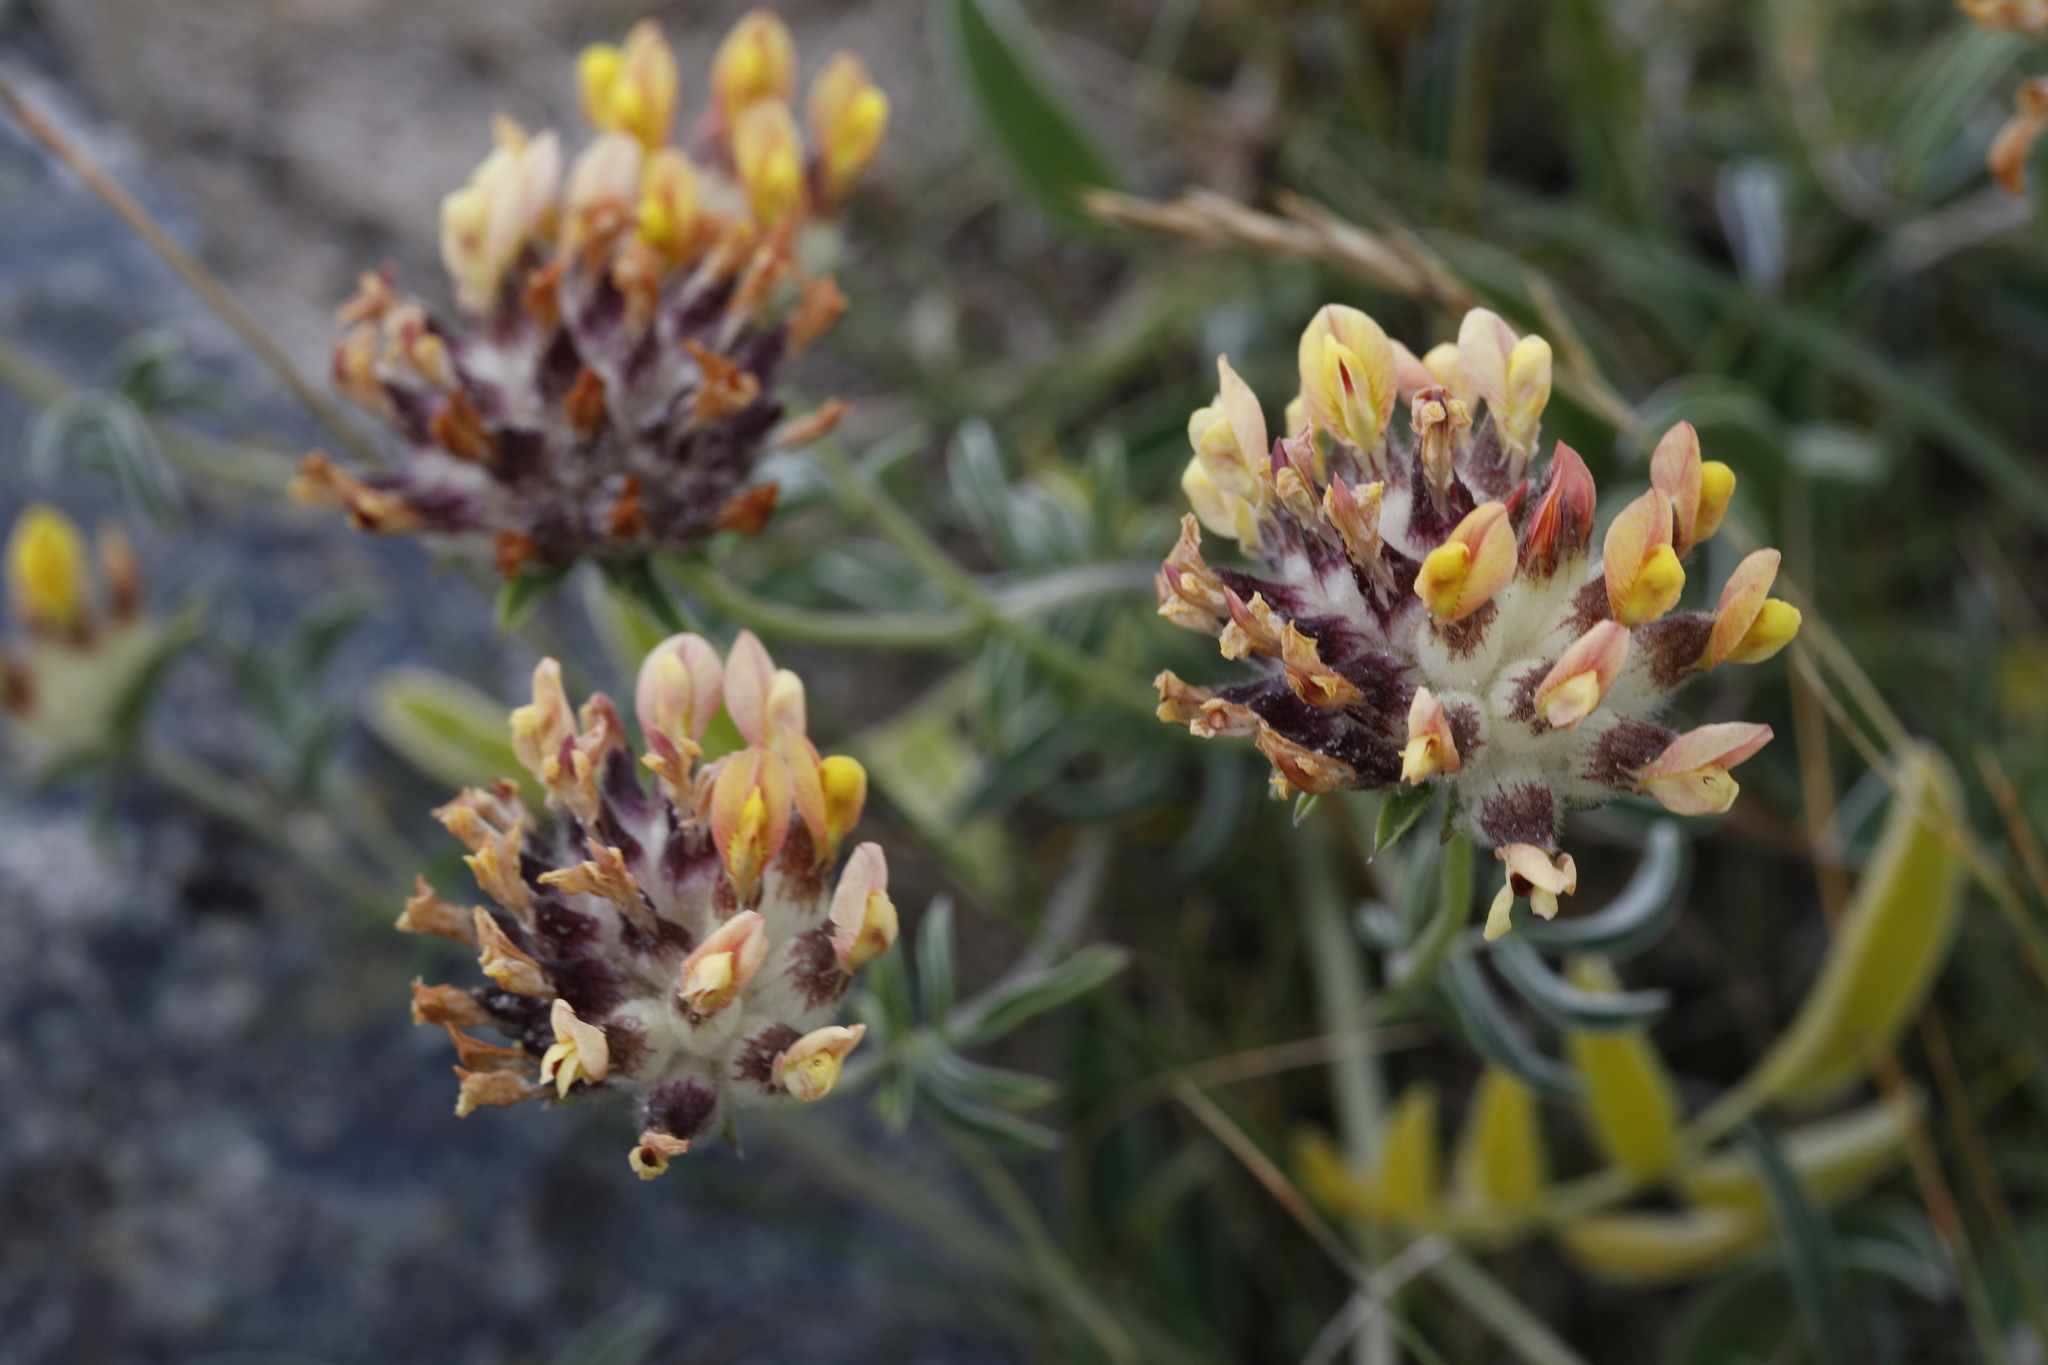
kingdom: Plantae
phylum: Tracheophyta
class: Magnoliopsida
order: Fabales
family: Fabaceae
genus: Anthyllis
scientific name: Anthyllis vulneraria
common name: Kidney vetch
